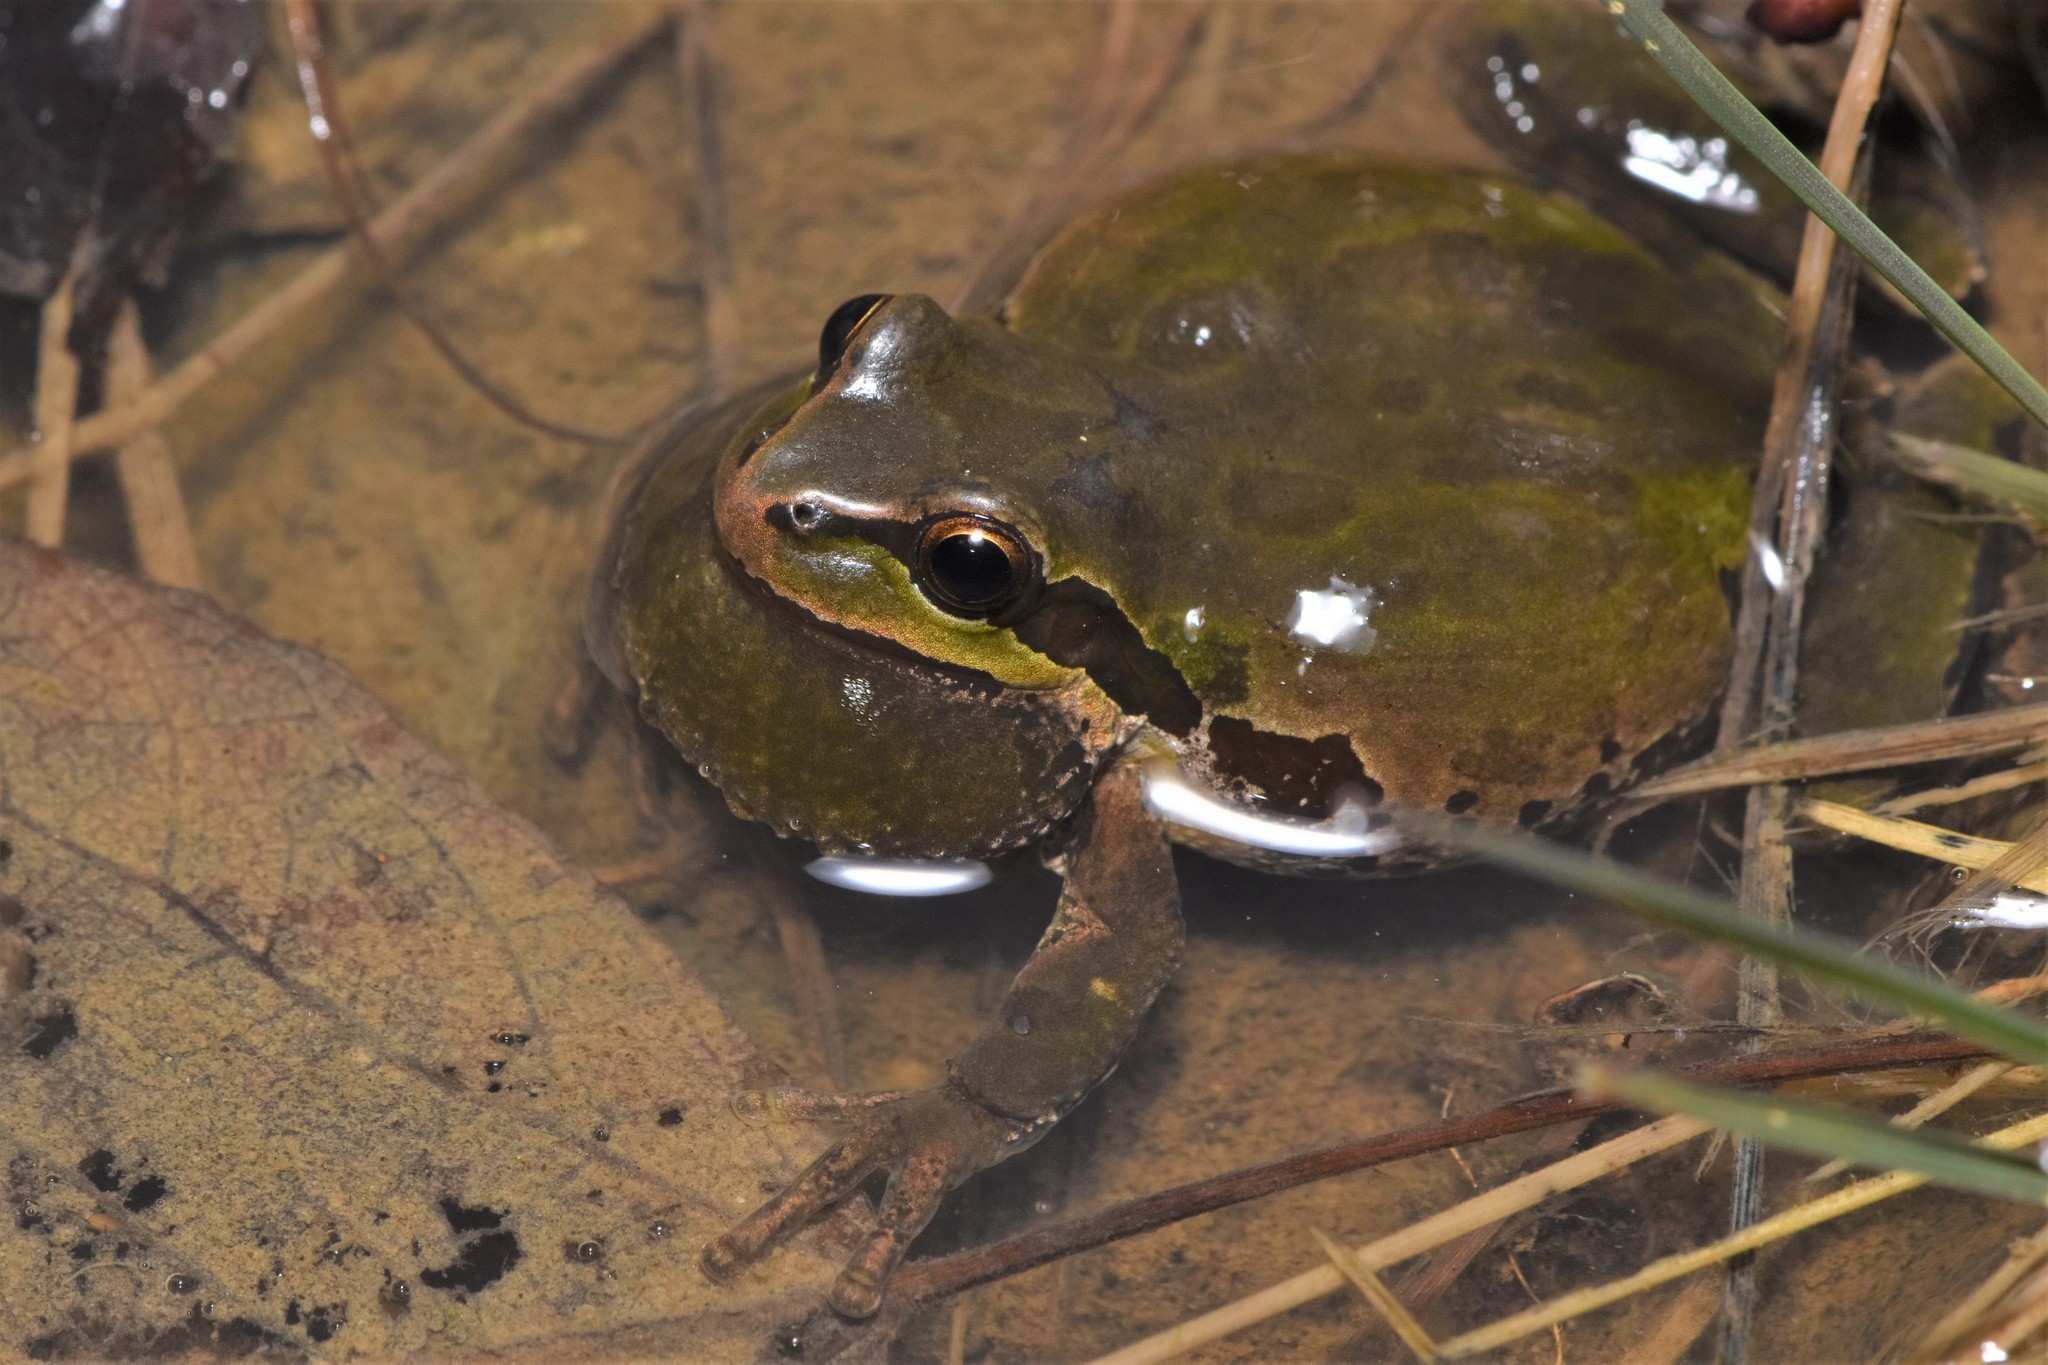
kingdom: Animalia
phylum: Chordata
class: Amphibia
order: Anura
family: Hylidae
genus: Pseudacris
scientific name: Pseudacris regilla
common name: Pacific chorus frog
